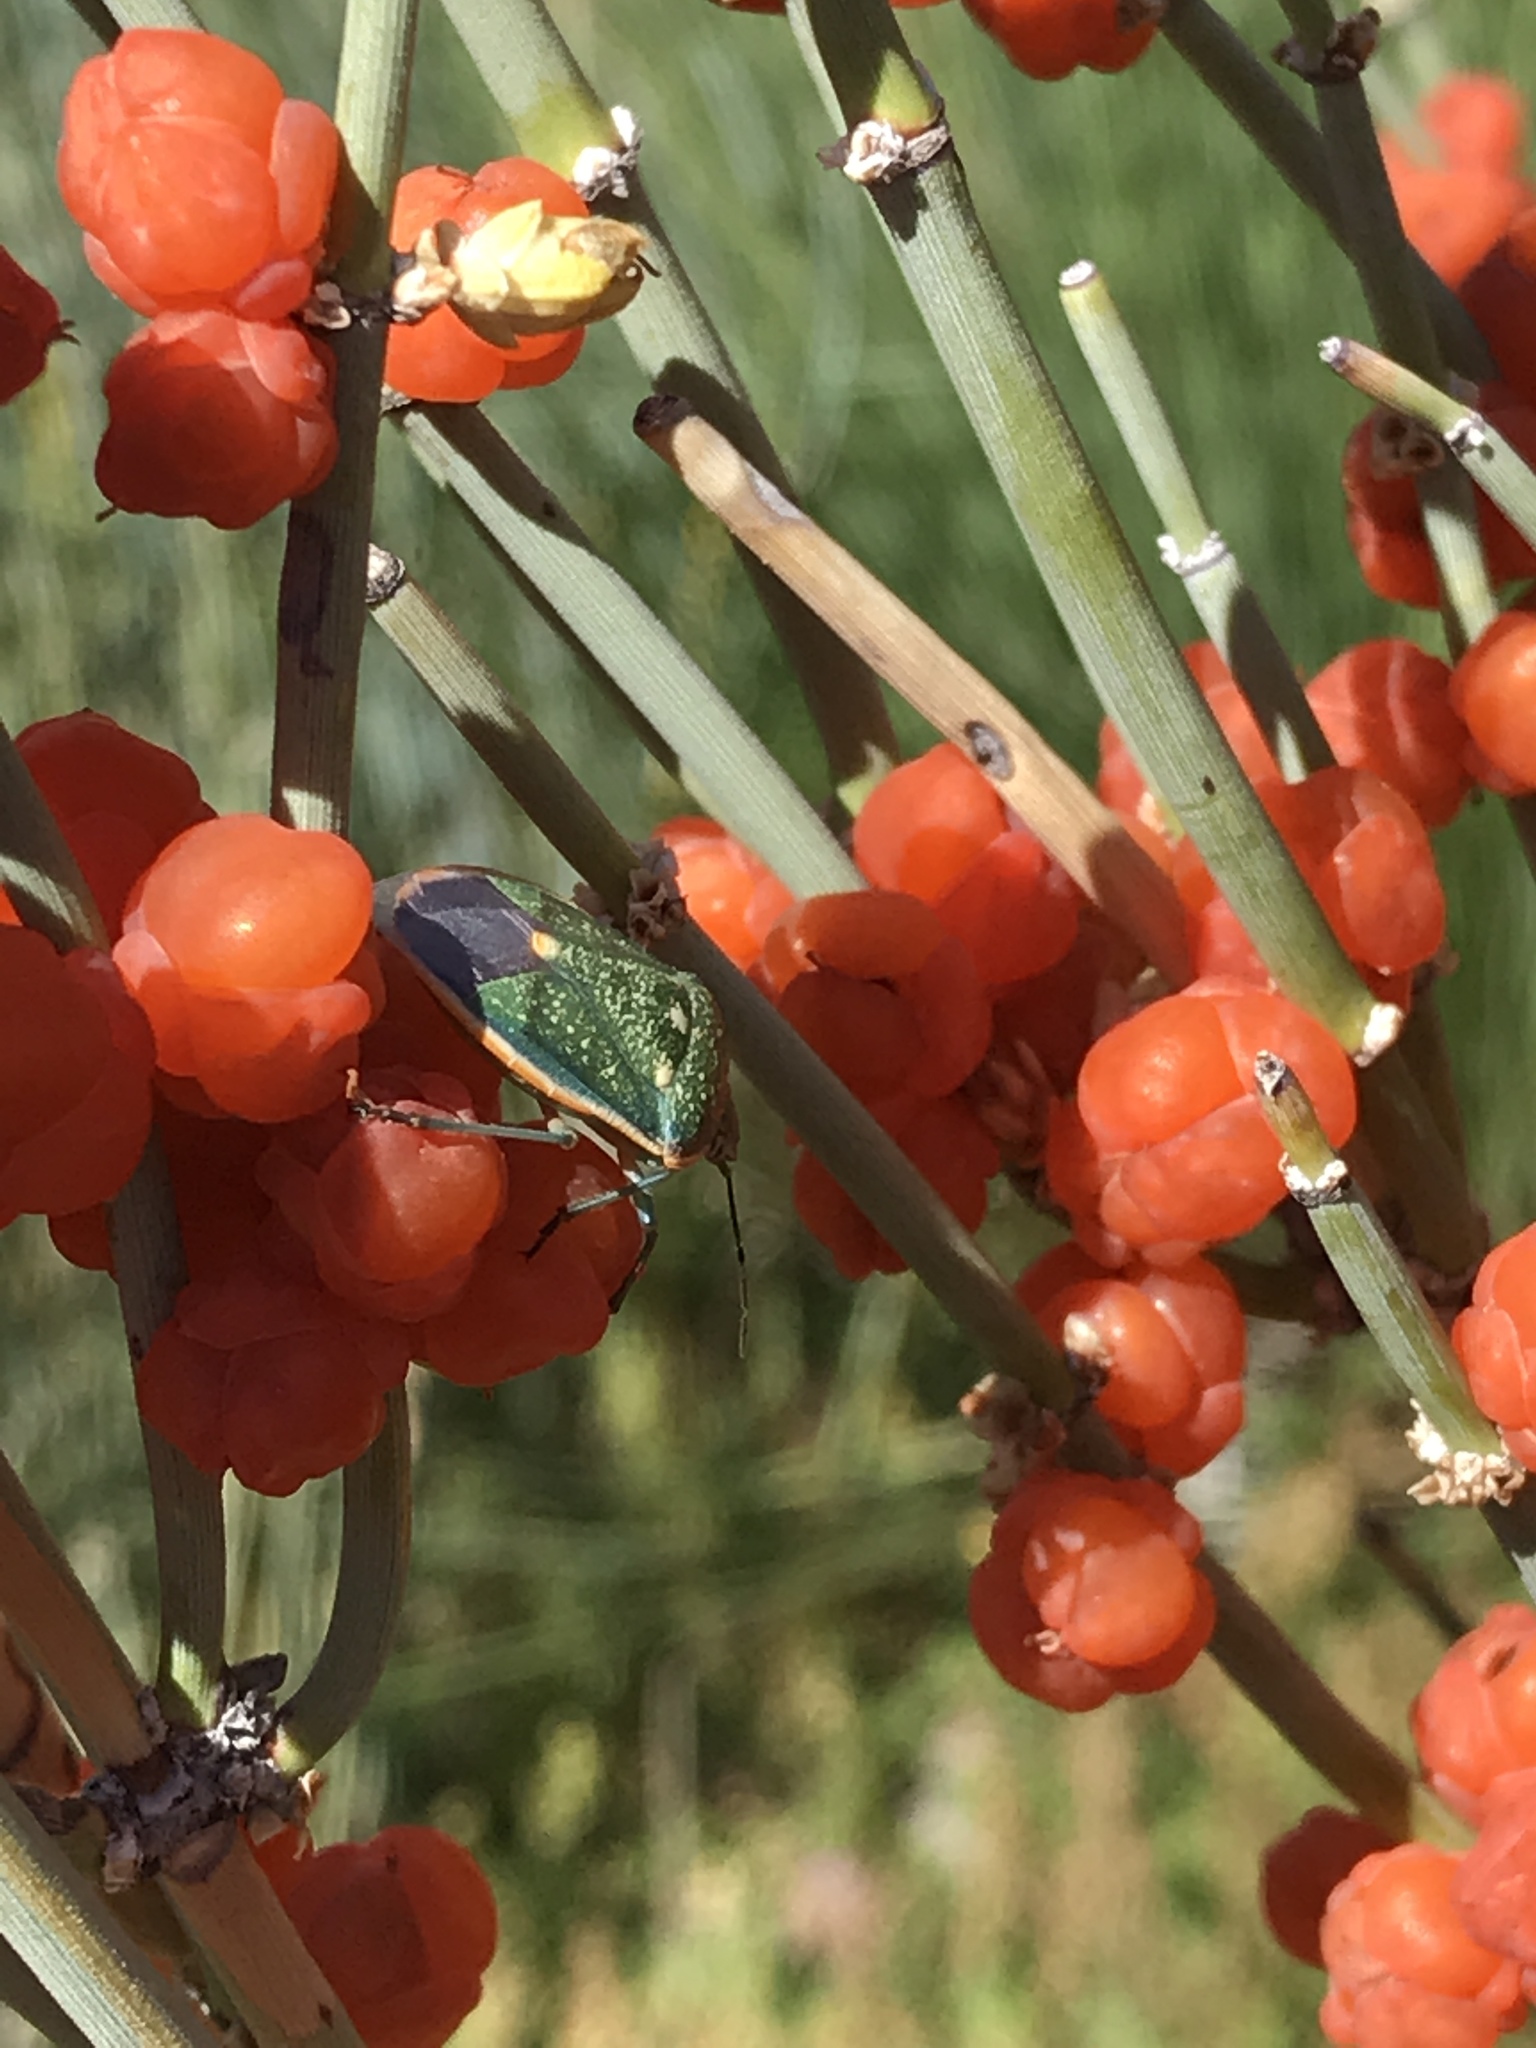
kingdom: Animalia
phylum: Arthropoda
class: Insecta
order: Hemiptera
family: Pentatomidae
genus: Chlorochroa
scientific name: Chlorochroa sayi
